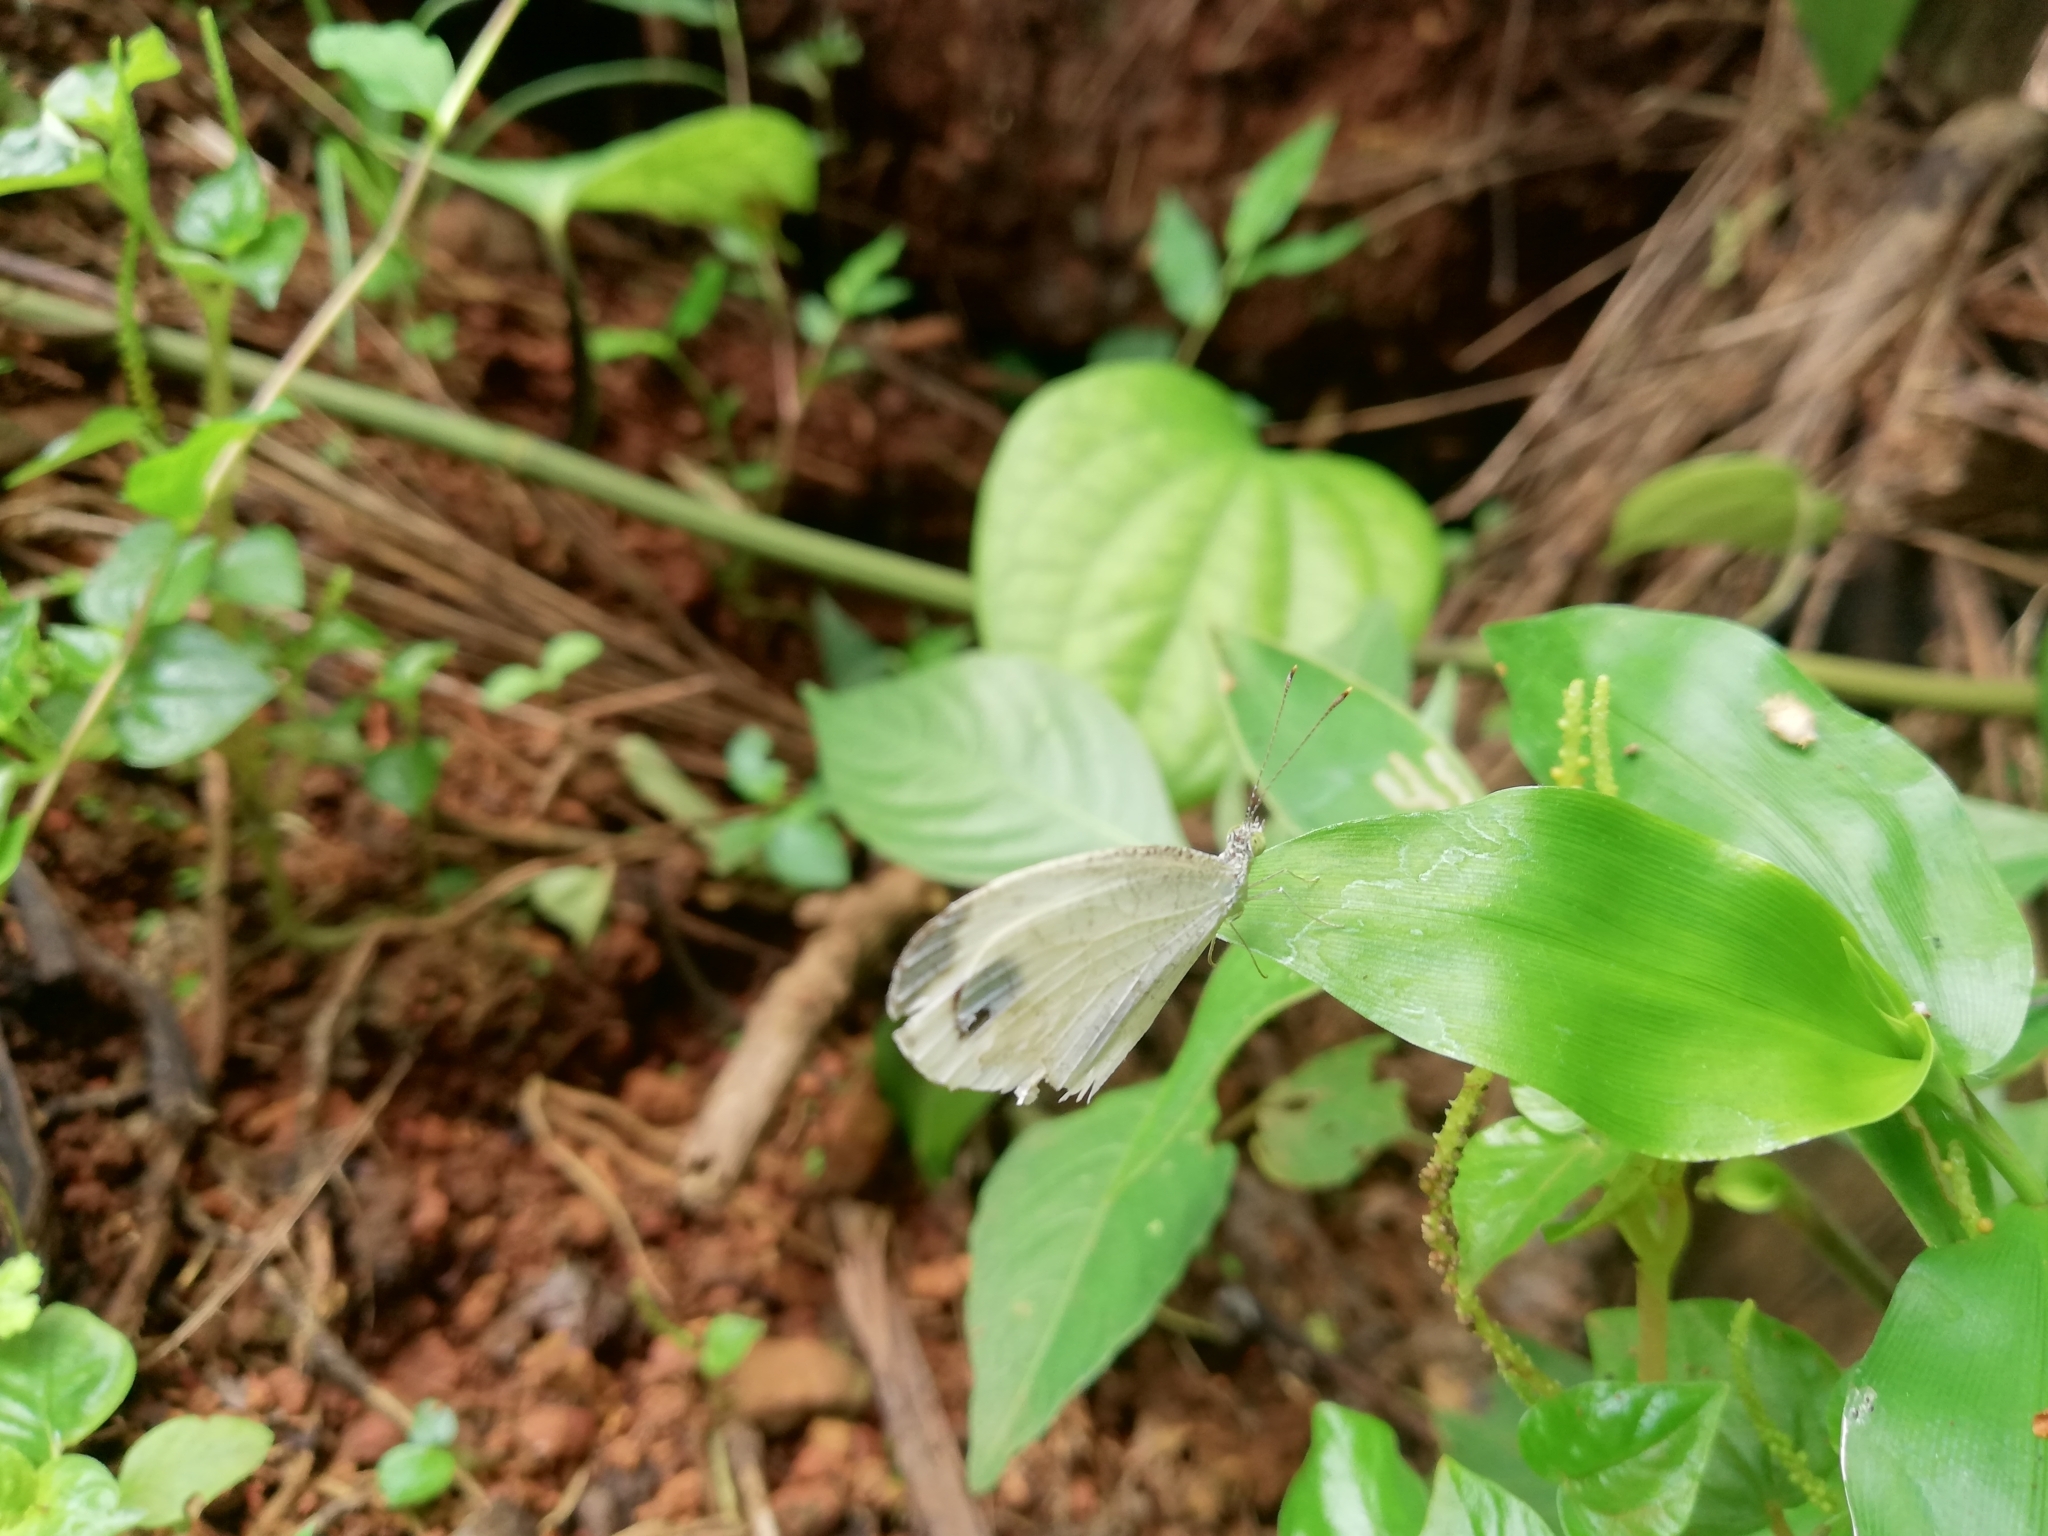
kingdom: Animalia
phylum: Arthropoda
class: Insecta
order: Lepidoptera
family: Pieridae
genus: Leptosia
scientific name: Leptosia nina
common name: Psyche
